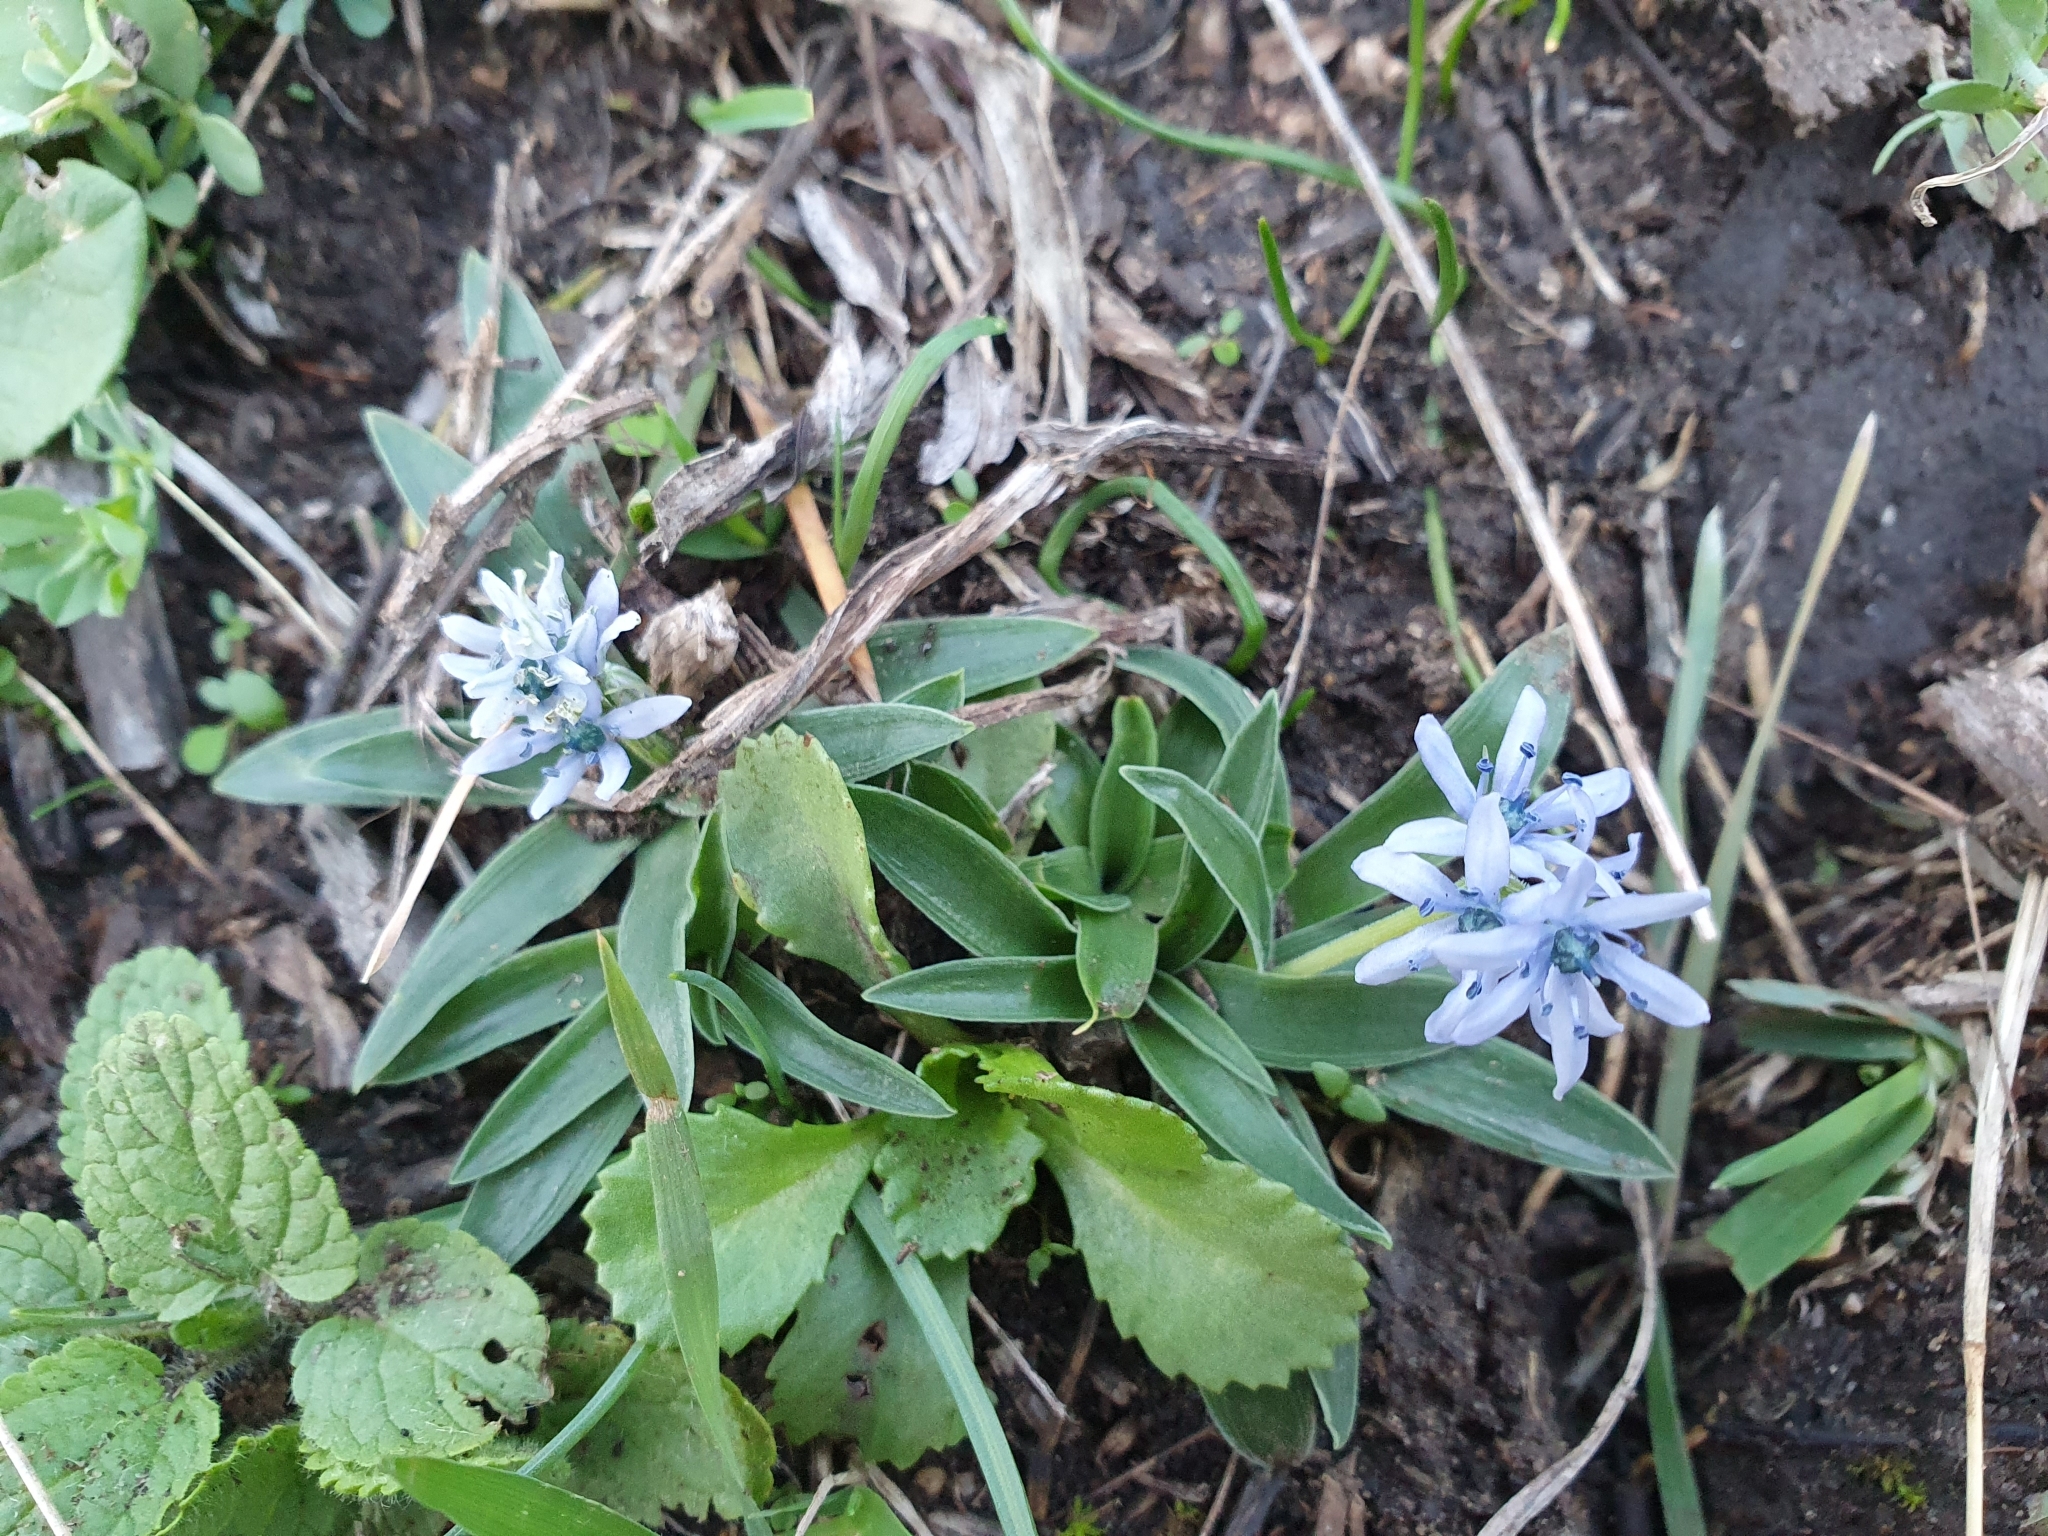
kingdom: Plantae
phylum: Tracheophyta
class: Liliopsida
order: Asparagales
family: Asparagaceae
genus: Hyacinthoides
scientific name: Hyacinthoides lingulata
